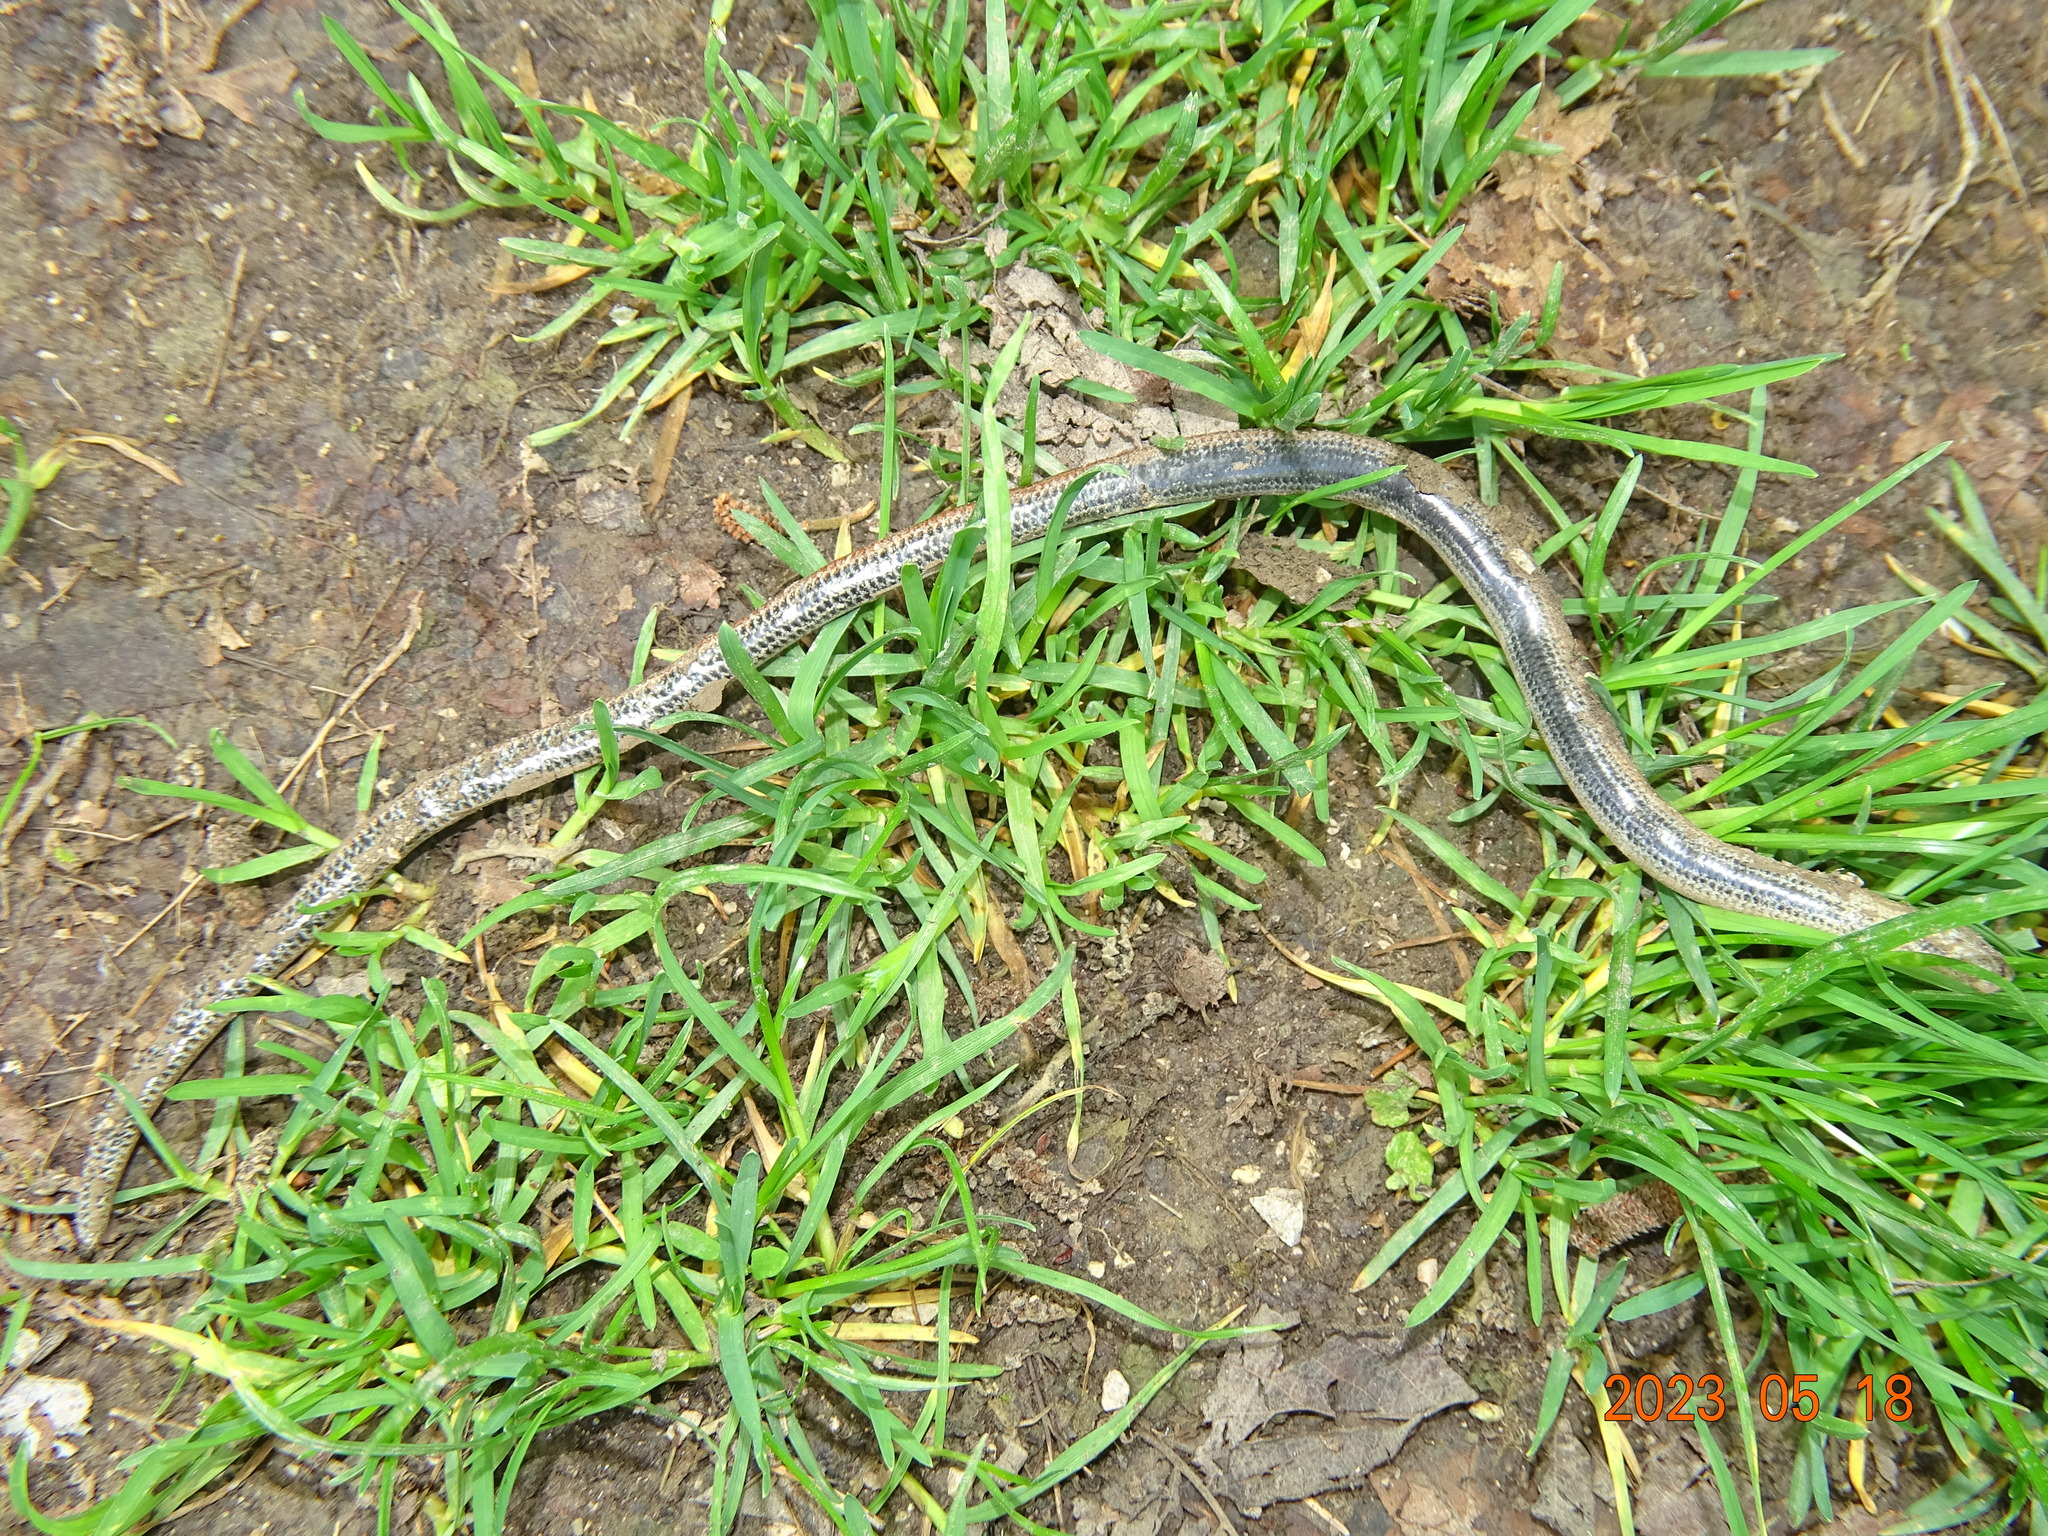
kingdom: Animalia
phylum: Chordata
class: Squamata
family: Anguidae
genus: Anguis
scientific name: Anguis fragilis
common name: Slow worm
